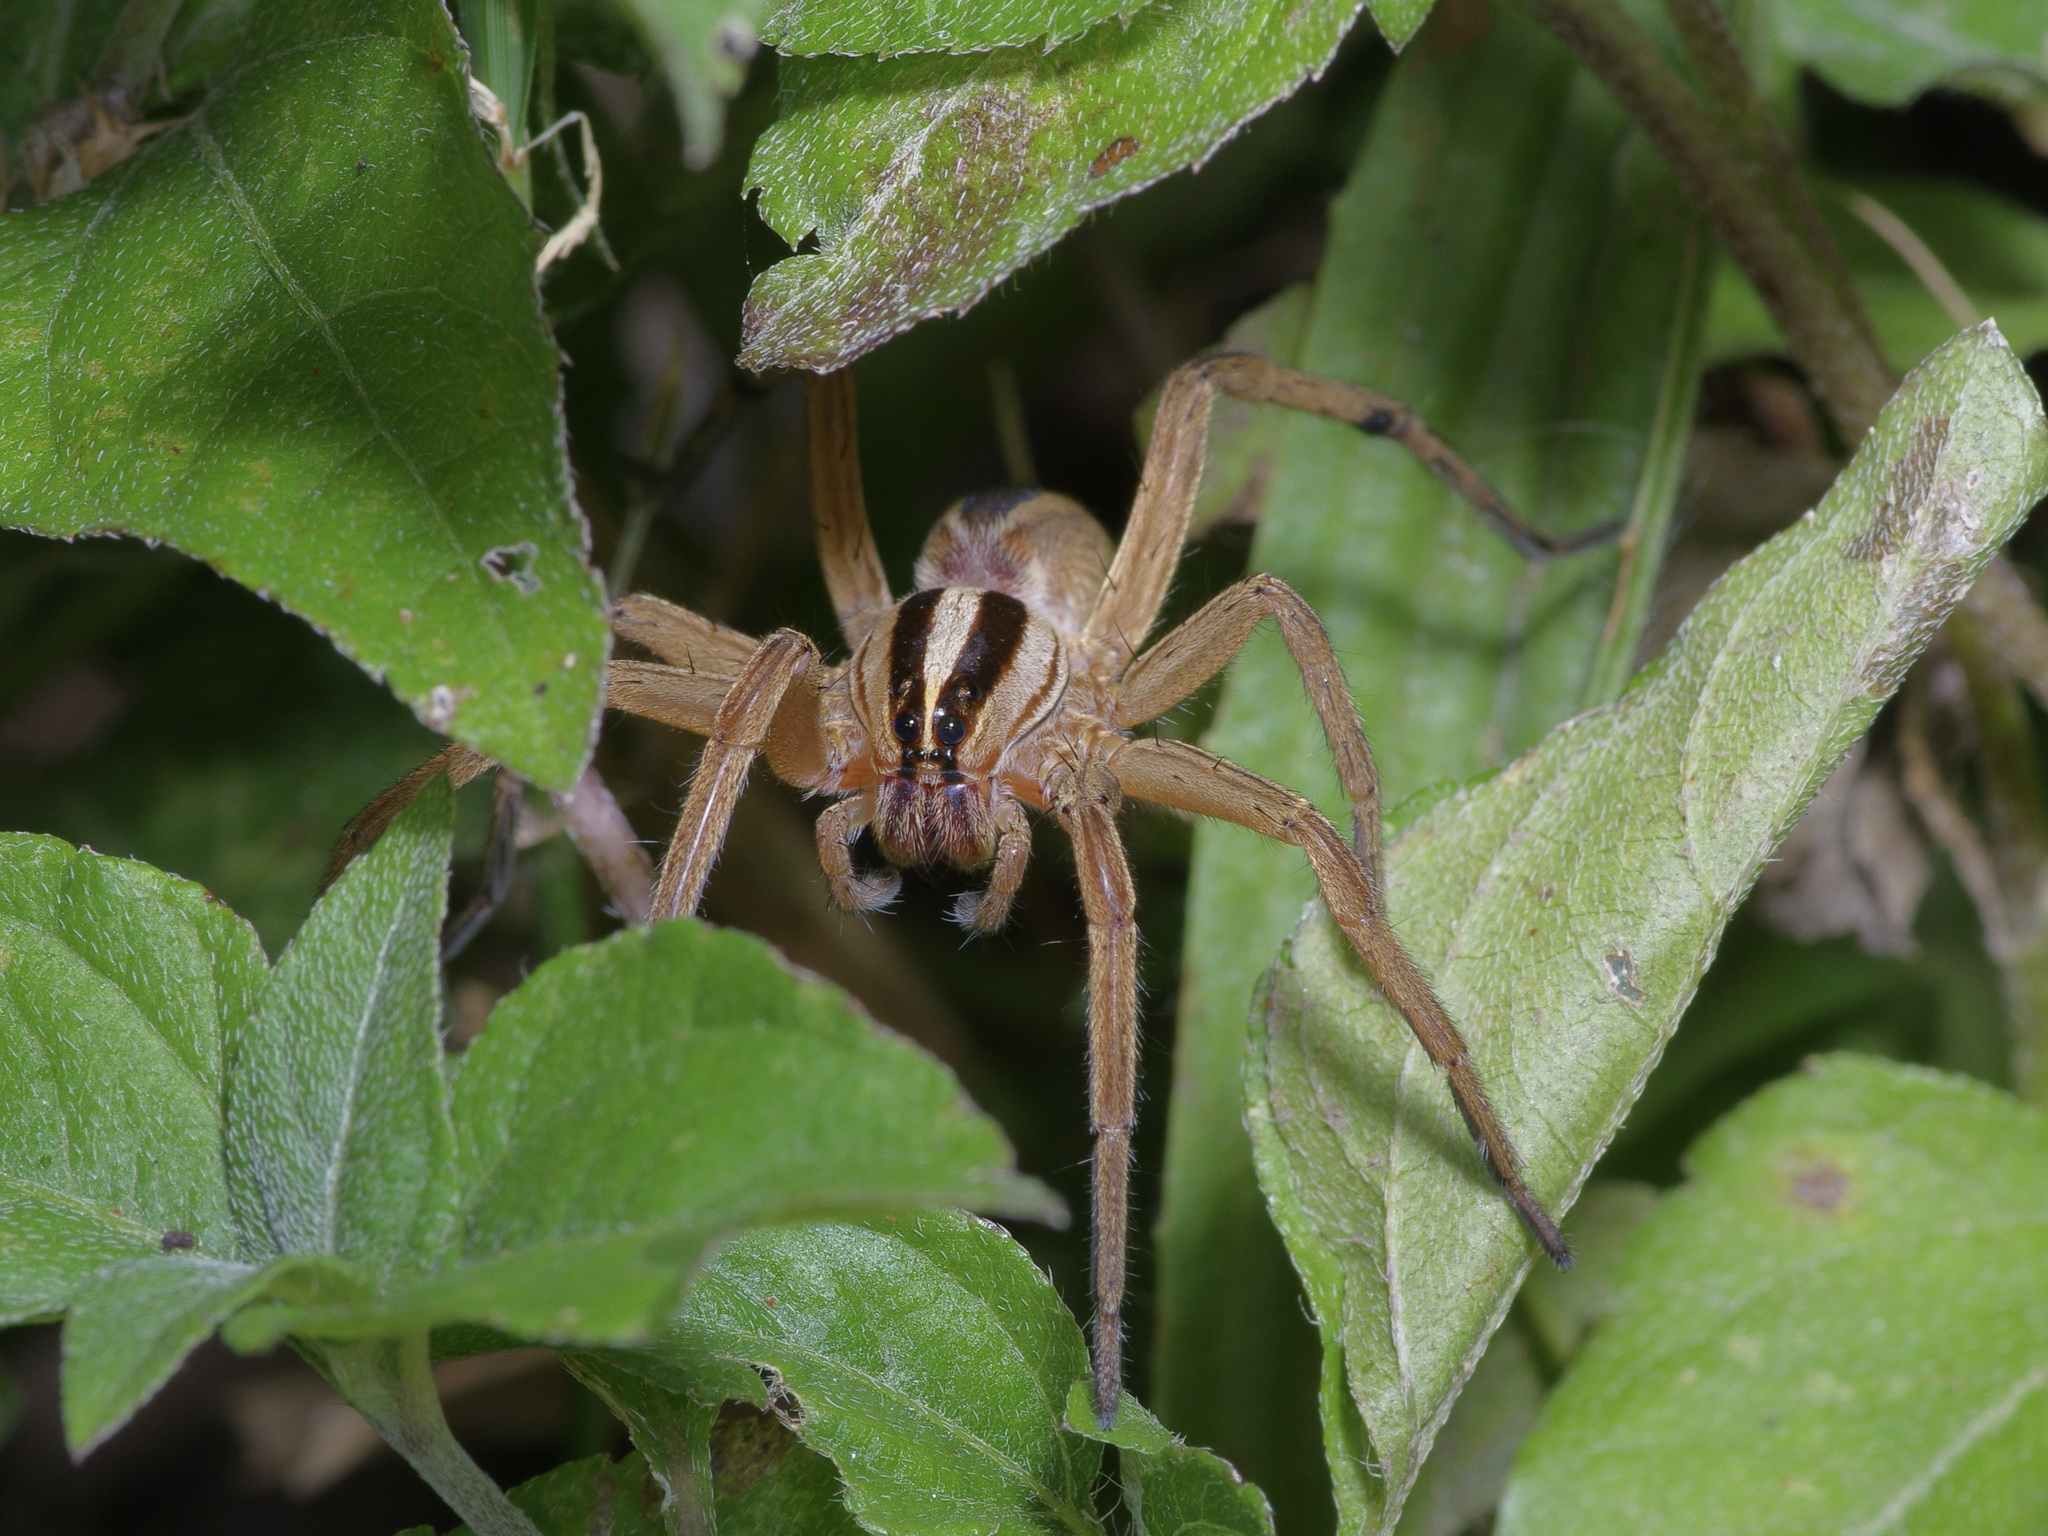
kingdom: Animalia
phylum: Arthropoda
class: Arachnida
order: Araneae
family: Lycosidae
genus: Rabidosa
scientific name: Rabidosa rabida
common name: Rabid wolf spider
